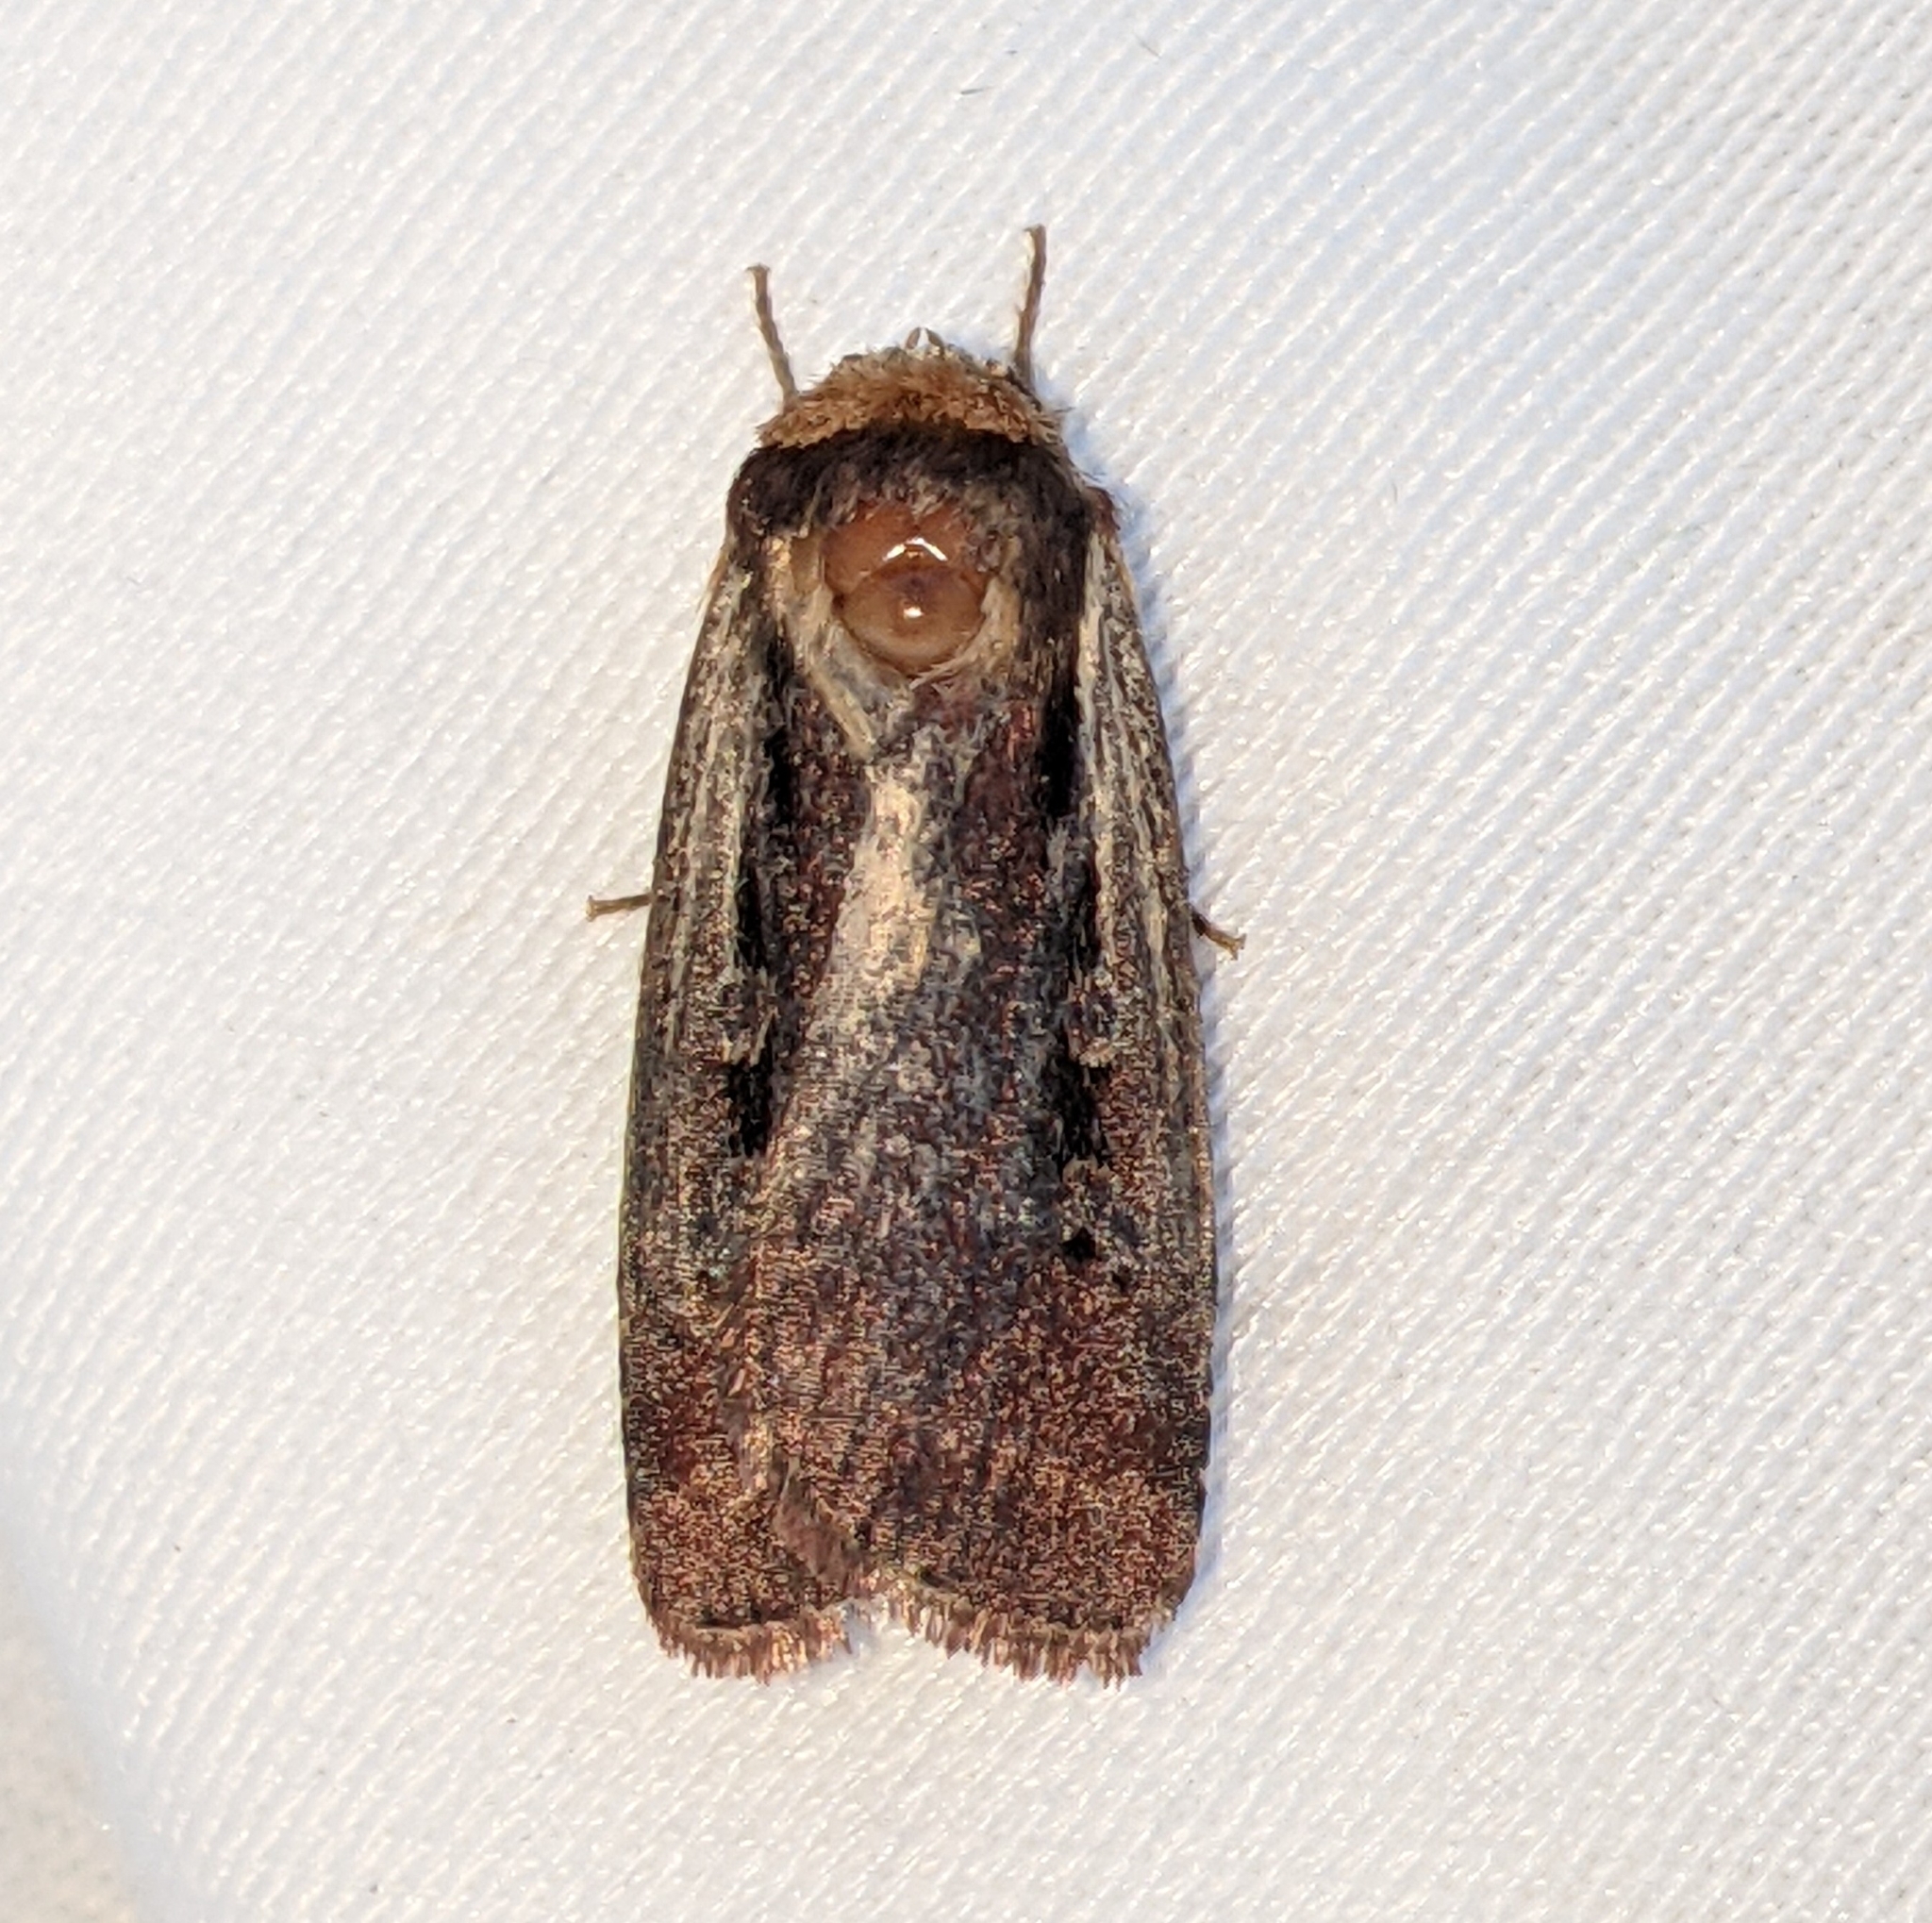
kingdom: Animalia
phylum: Arthropoda
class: Insecta
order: Lepidoptera
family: Noctuidae
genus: Ochropleura
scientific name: Ochropleura implecta
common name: Flame-shouldered dart
